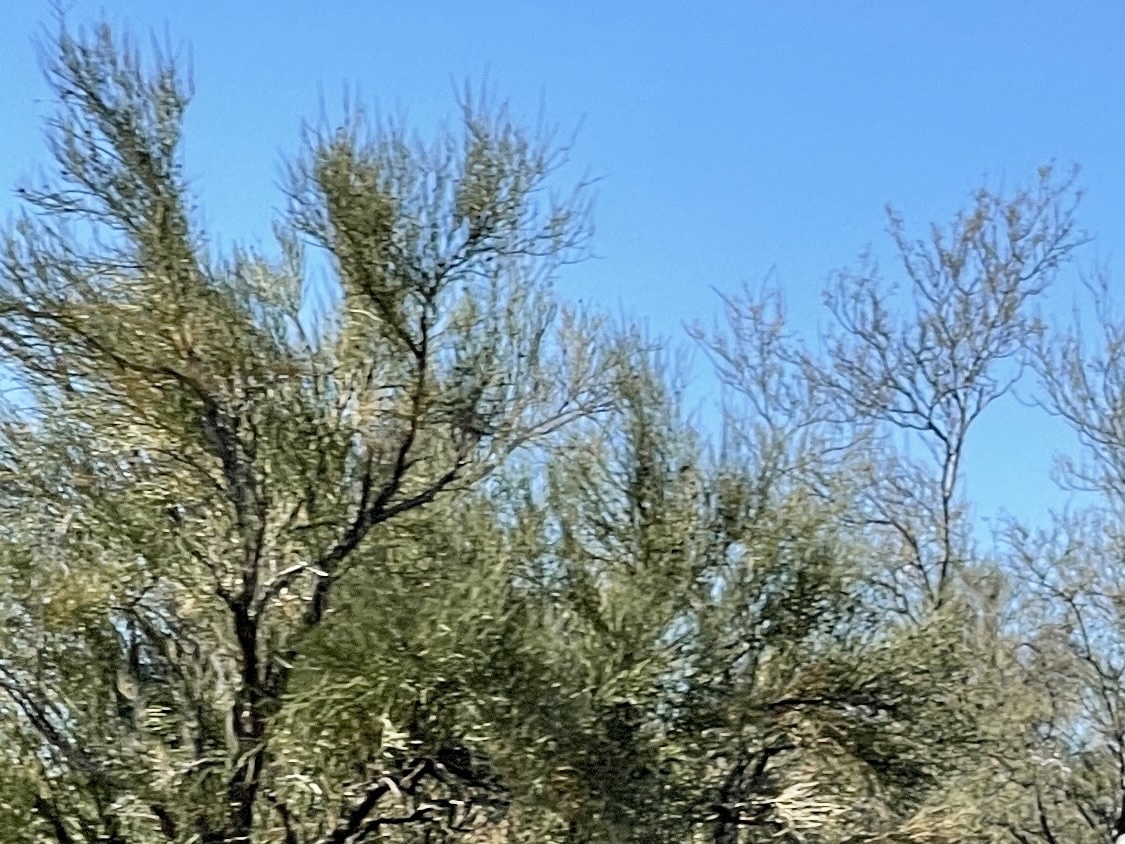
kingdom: Plantae
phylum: Tracheophyta
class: Magnoliopsida
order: Celastrales
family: Celastraceae
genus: Canotia
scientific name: Canotia holacantha
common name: Crucifixion thorns
